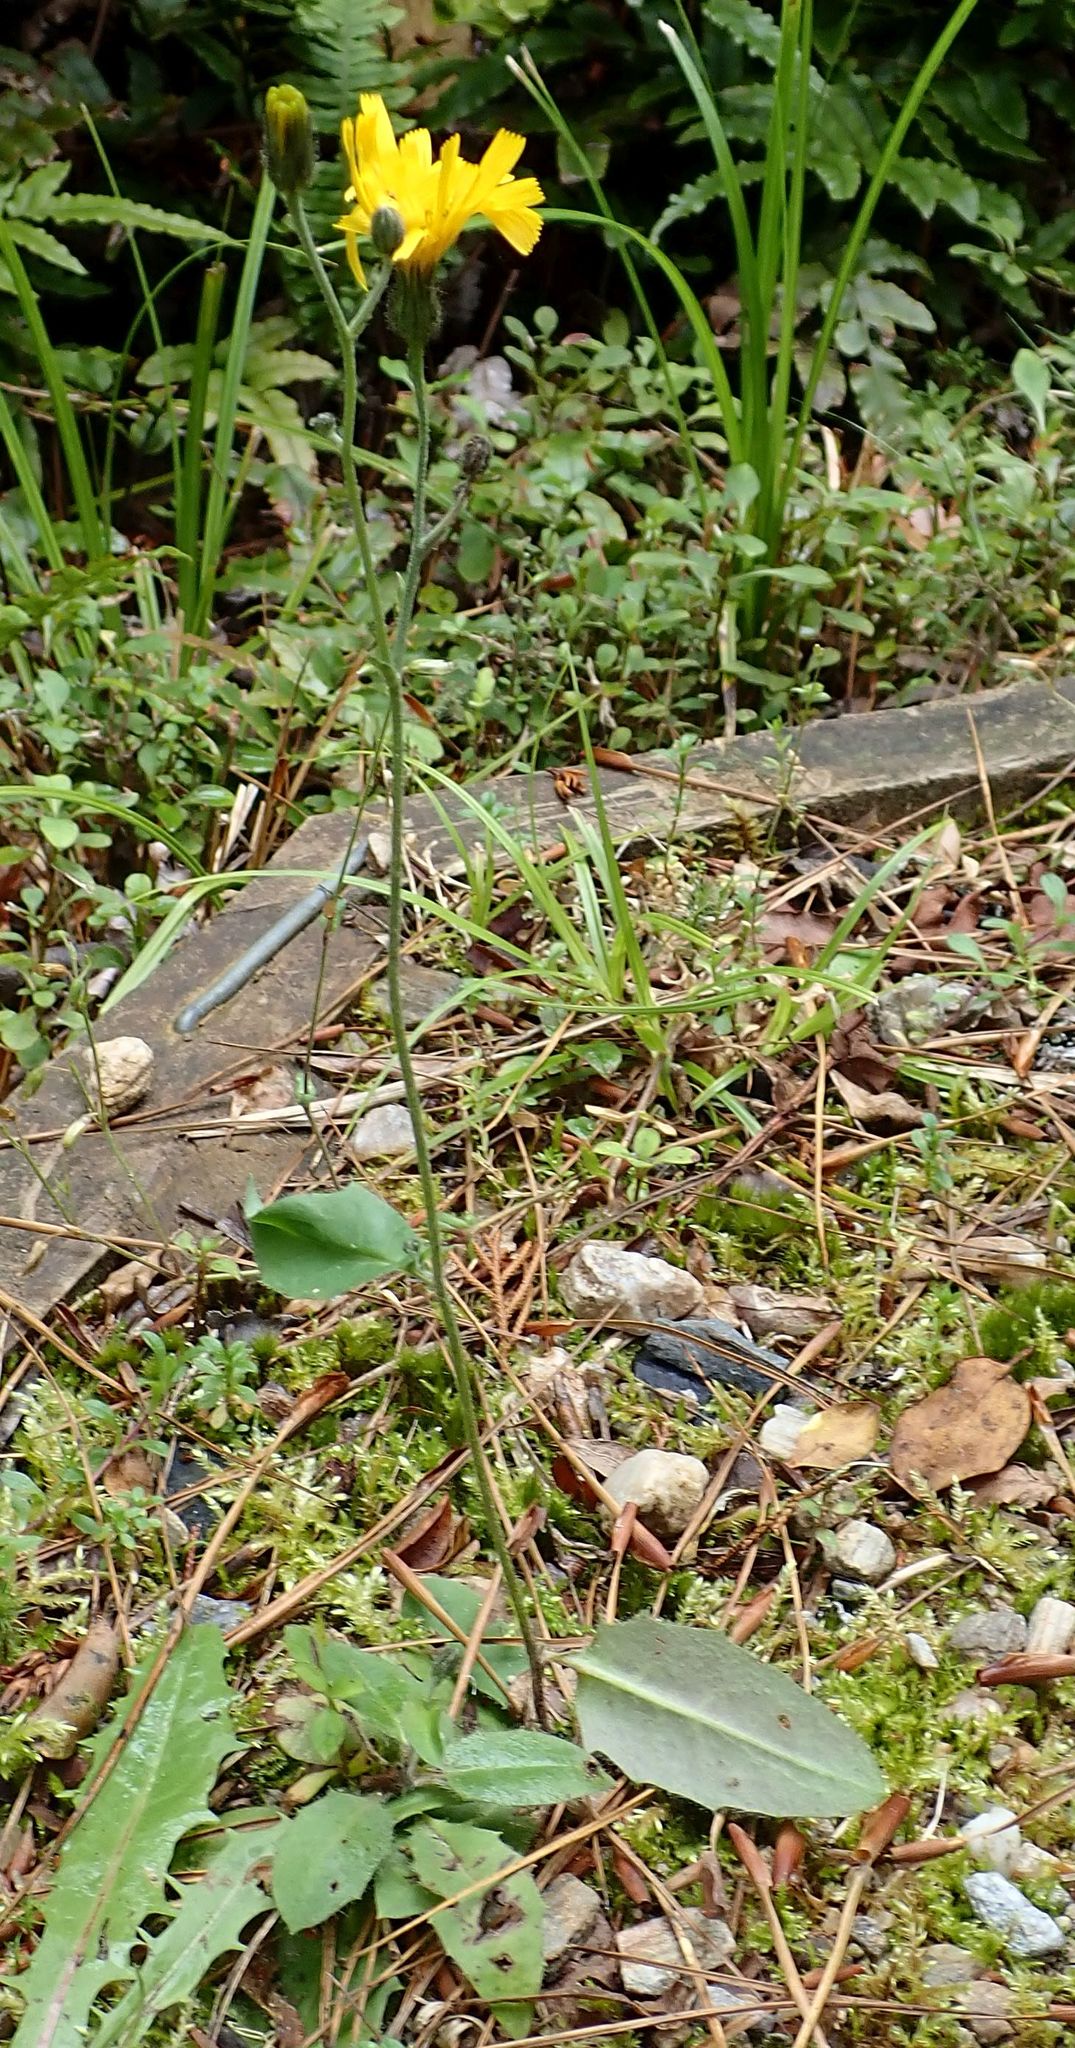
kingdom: Plantae
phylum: Tracheophyta
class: Magnoliopsida
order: Asterales
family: Asteraceae
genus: Hieracium
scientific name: Hieracium lepidulum
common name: Irregular-toothed hawkweed
